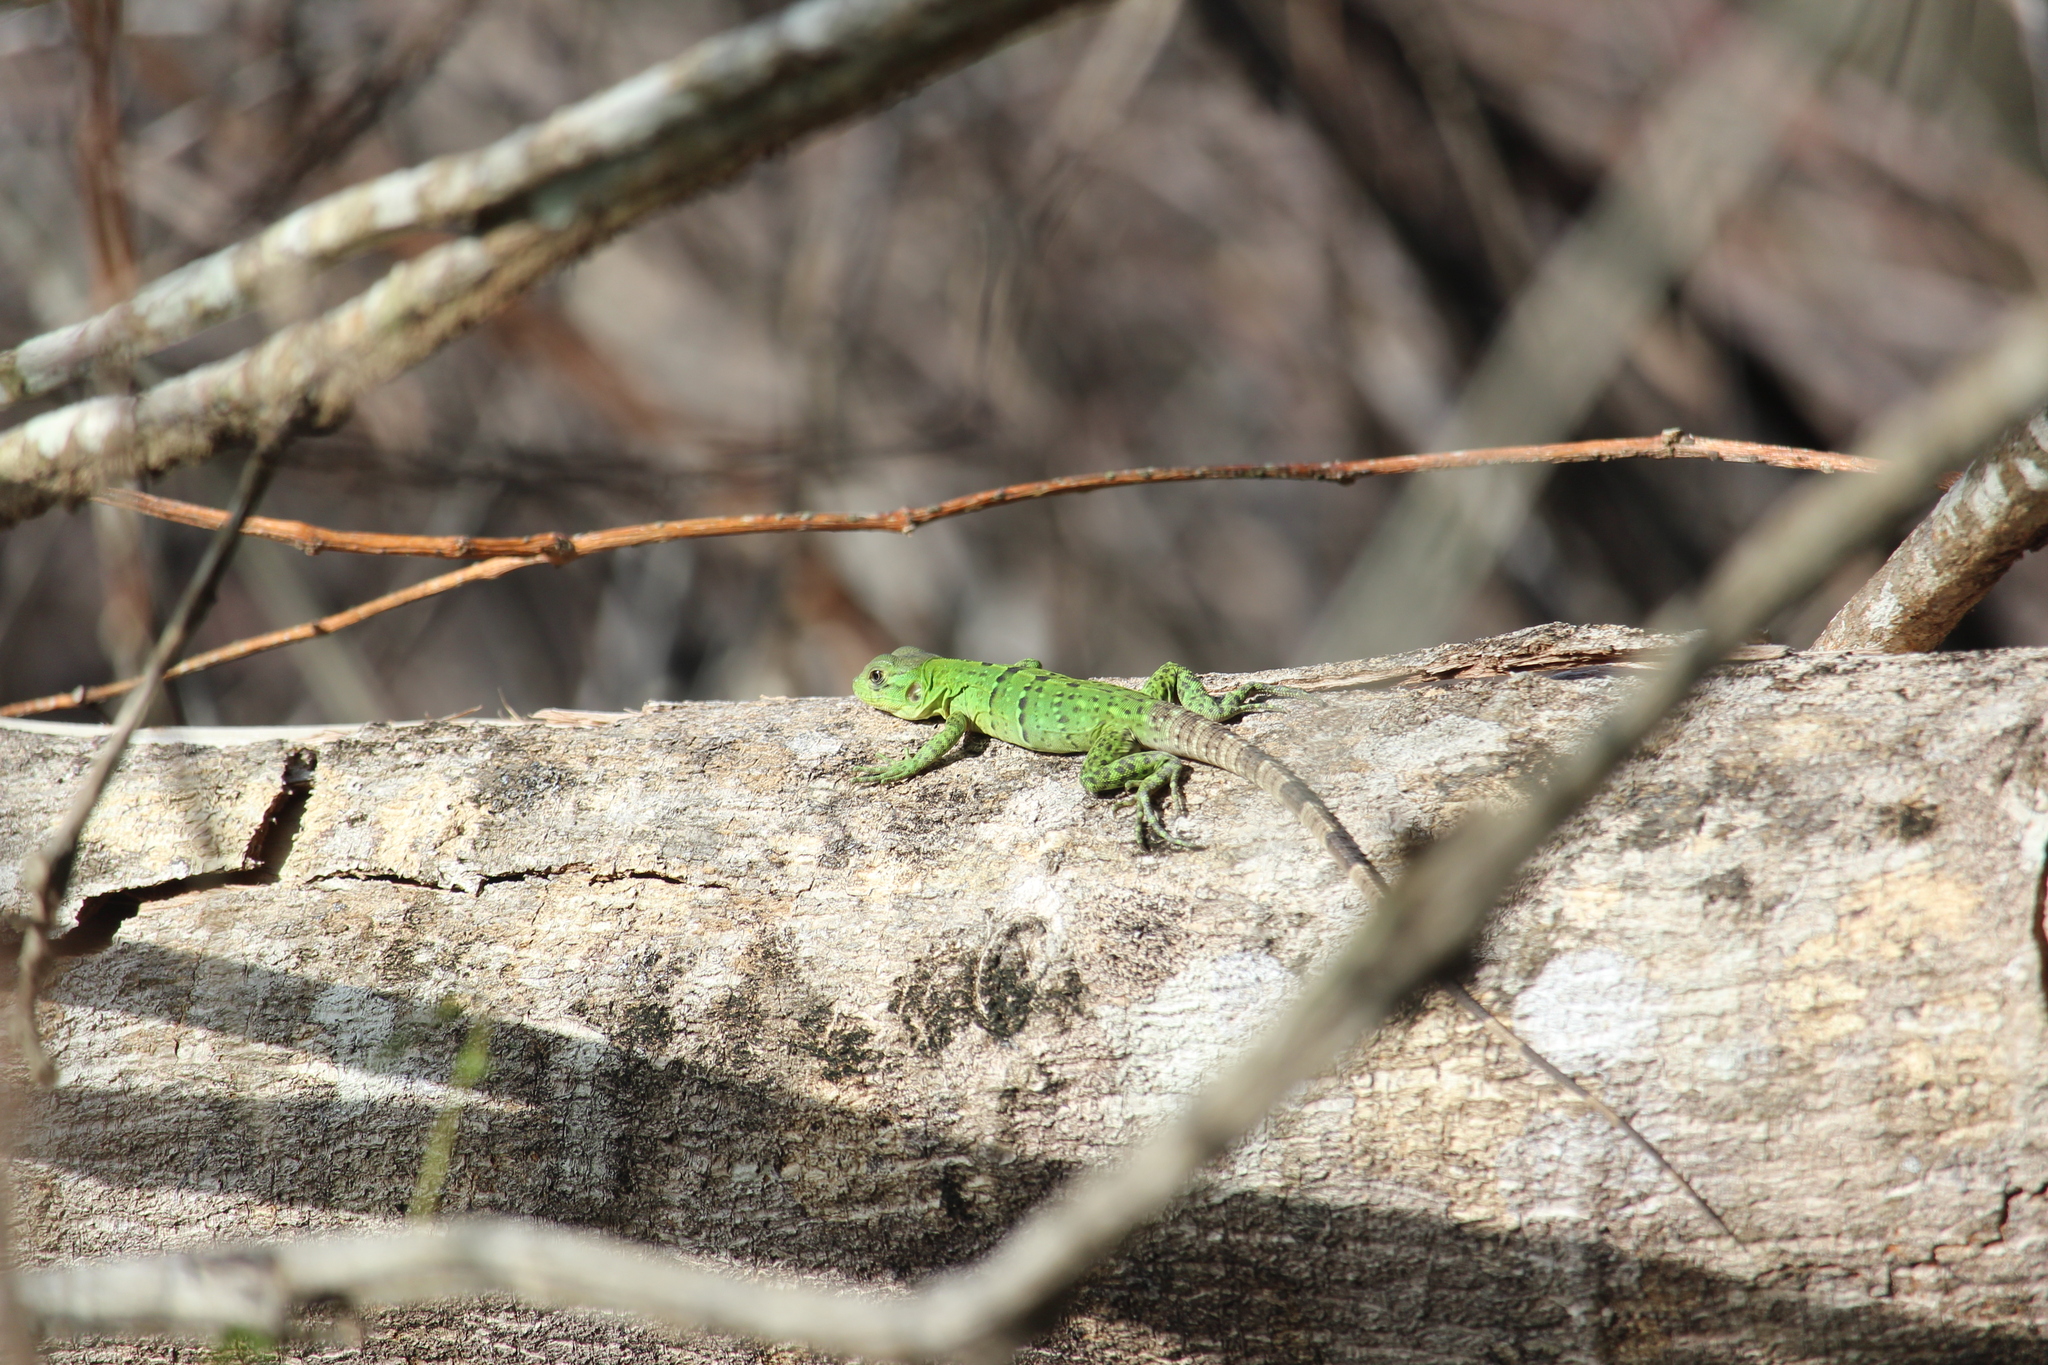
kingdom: Animalia
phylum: Chordata
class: Squamata
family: Iguanidae
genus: Ctenosaura
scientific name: Ctenosaura similis
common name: Black spiny-tailed iguana
